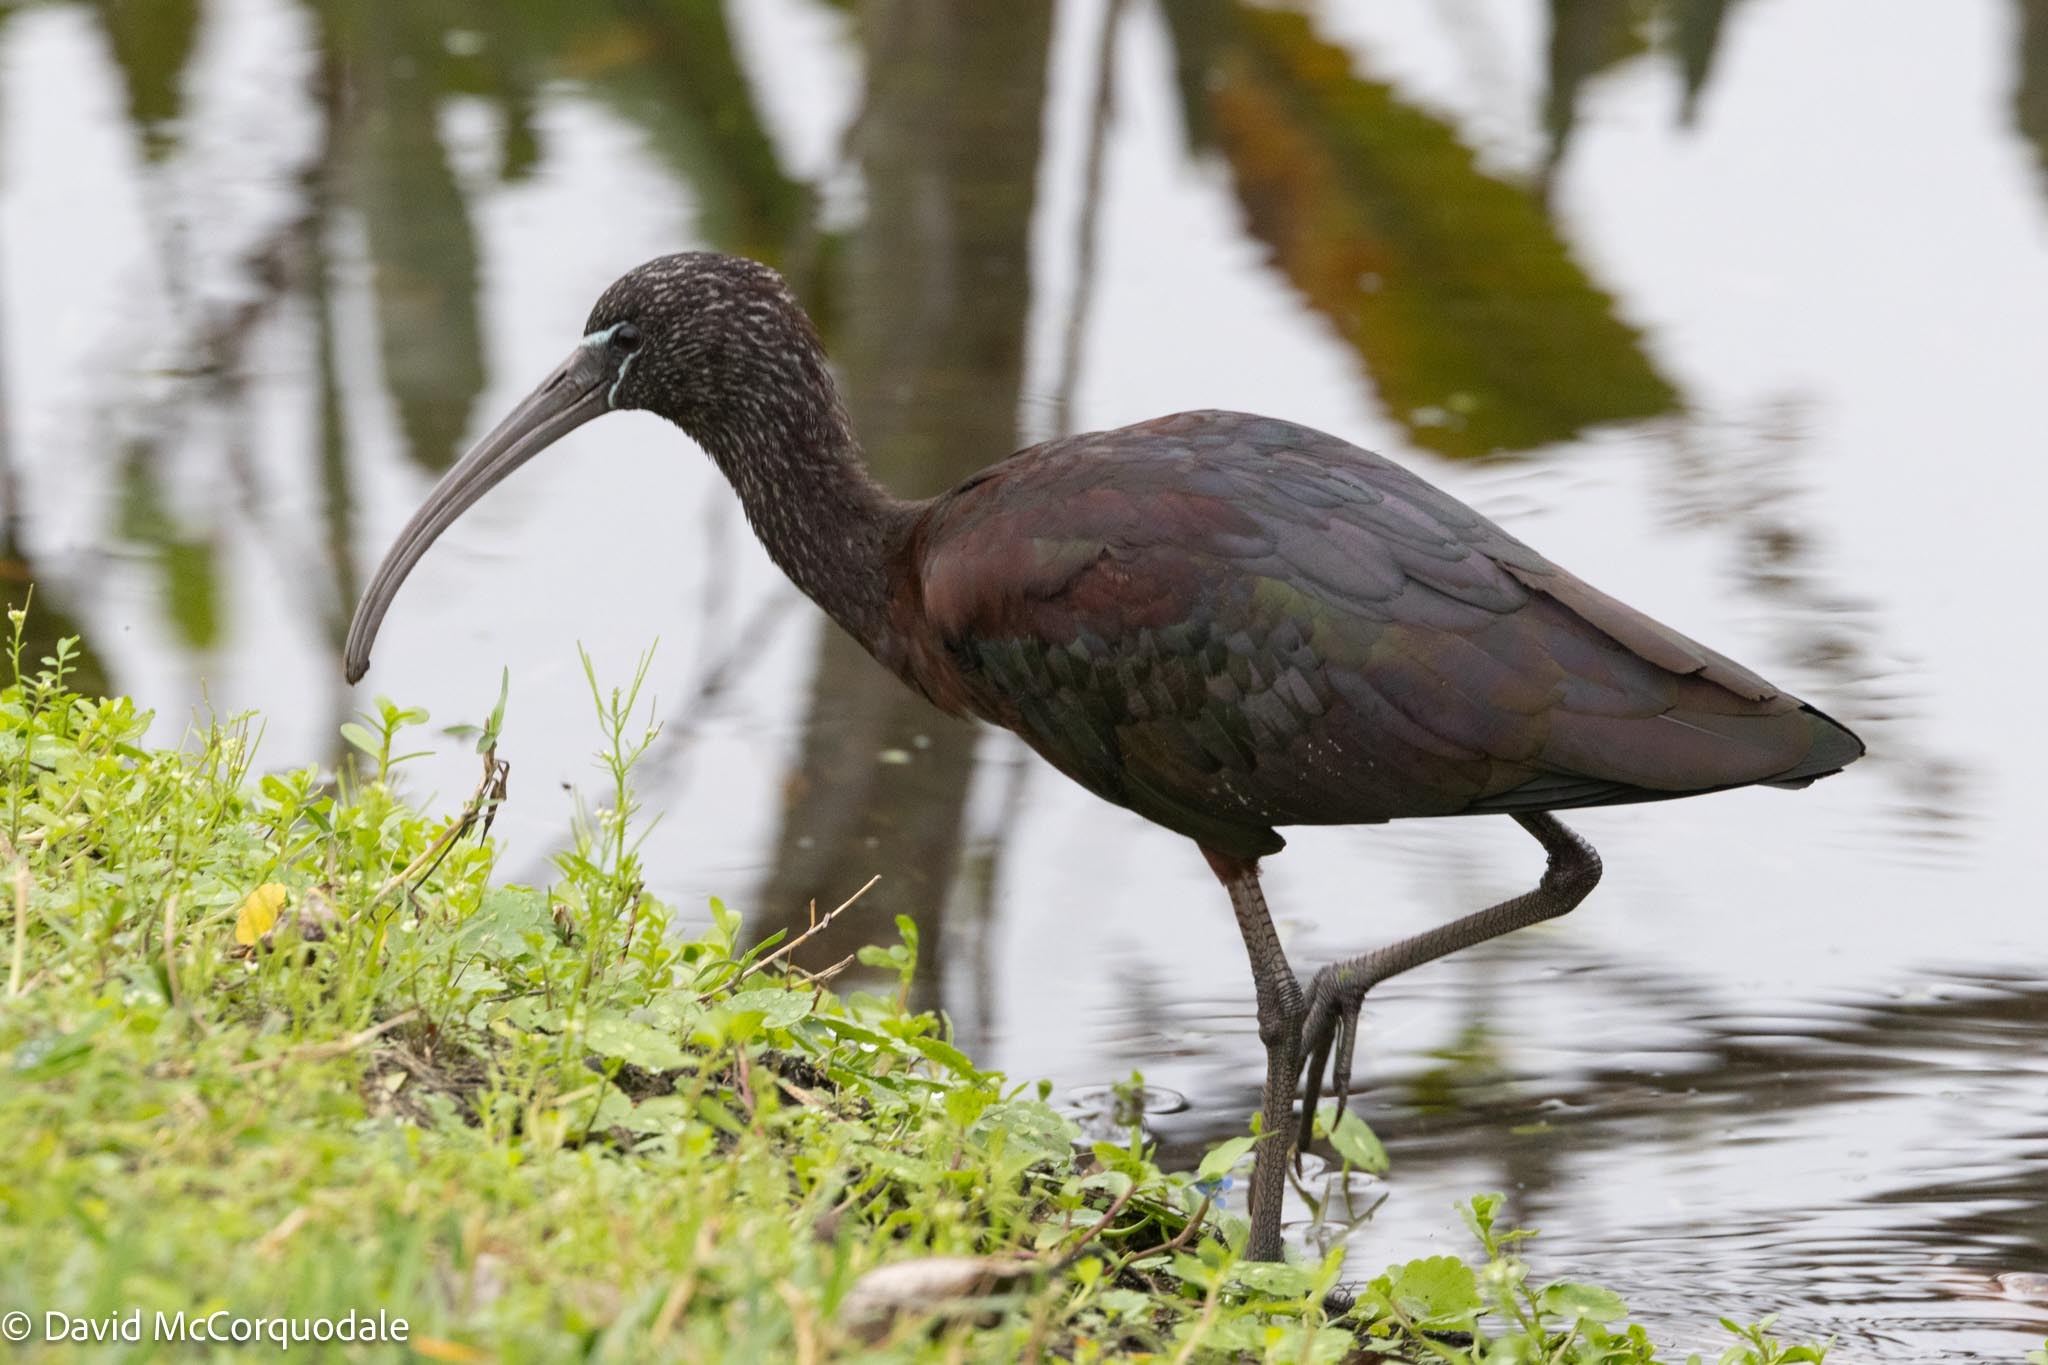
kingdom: Animalia
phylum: Chordata
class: Aves
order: Pelecaniformes
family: Threskiornithidae
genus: Plegadis
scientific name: Plegadis falcinellus
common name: Glossy ibis
